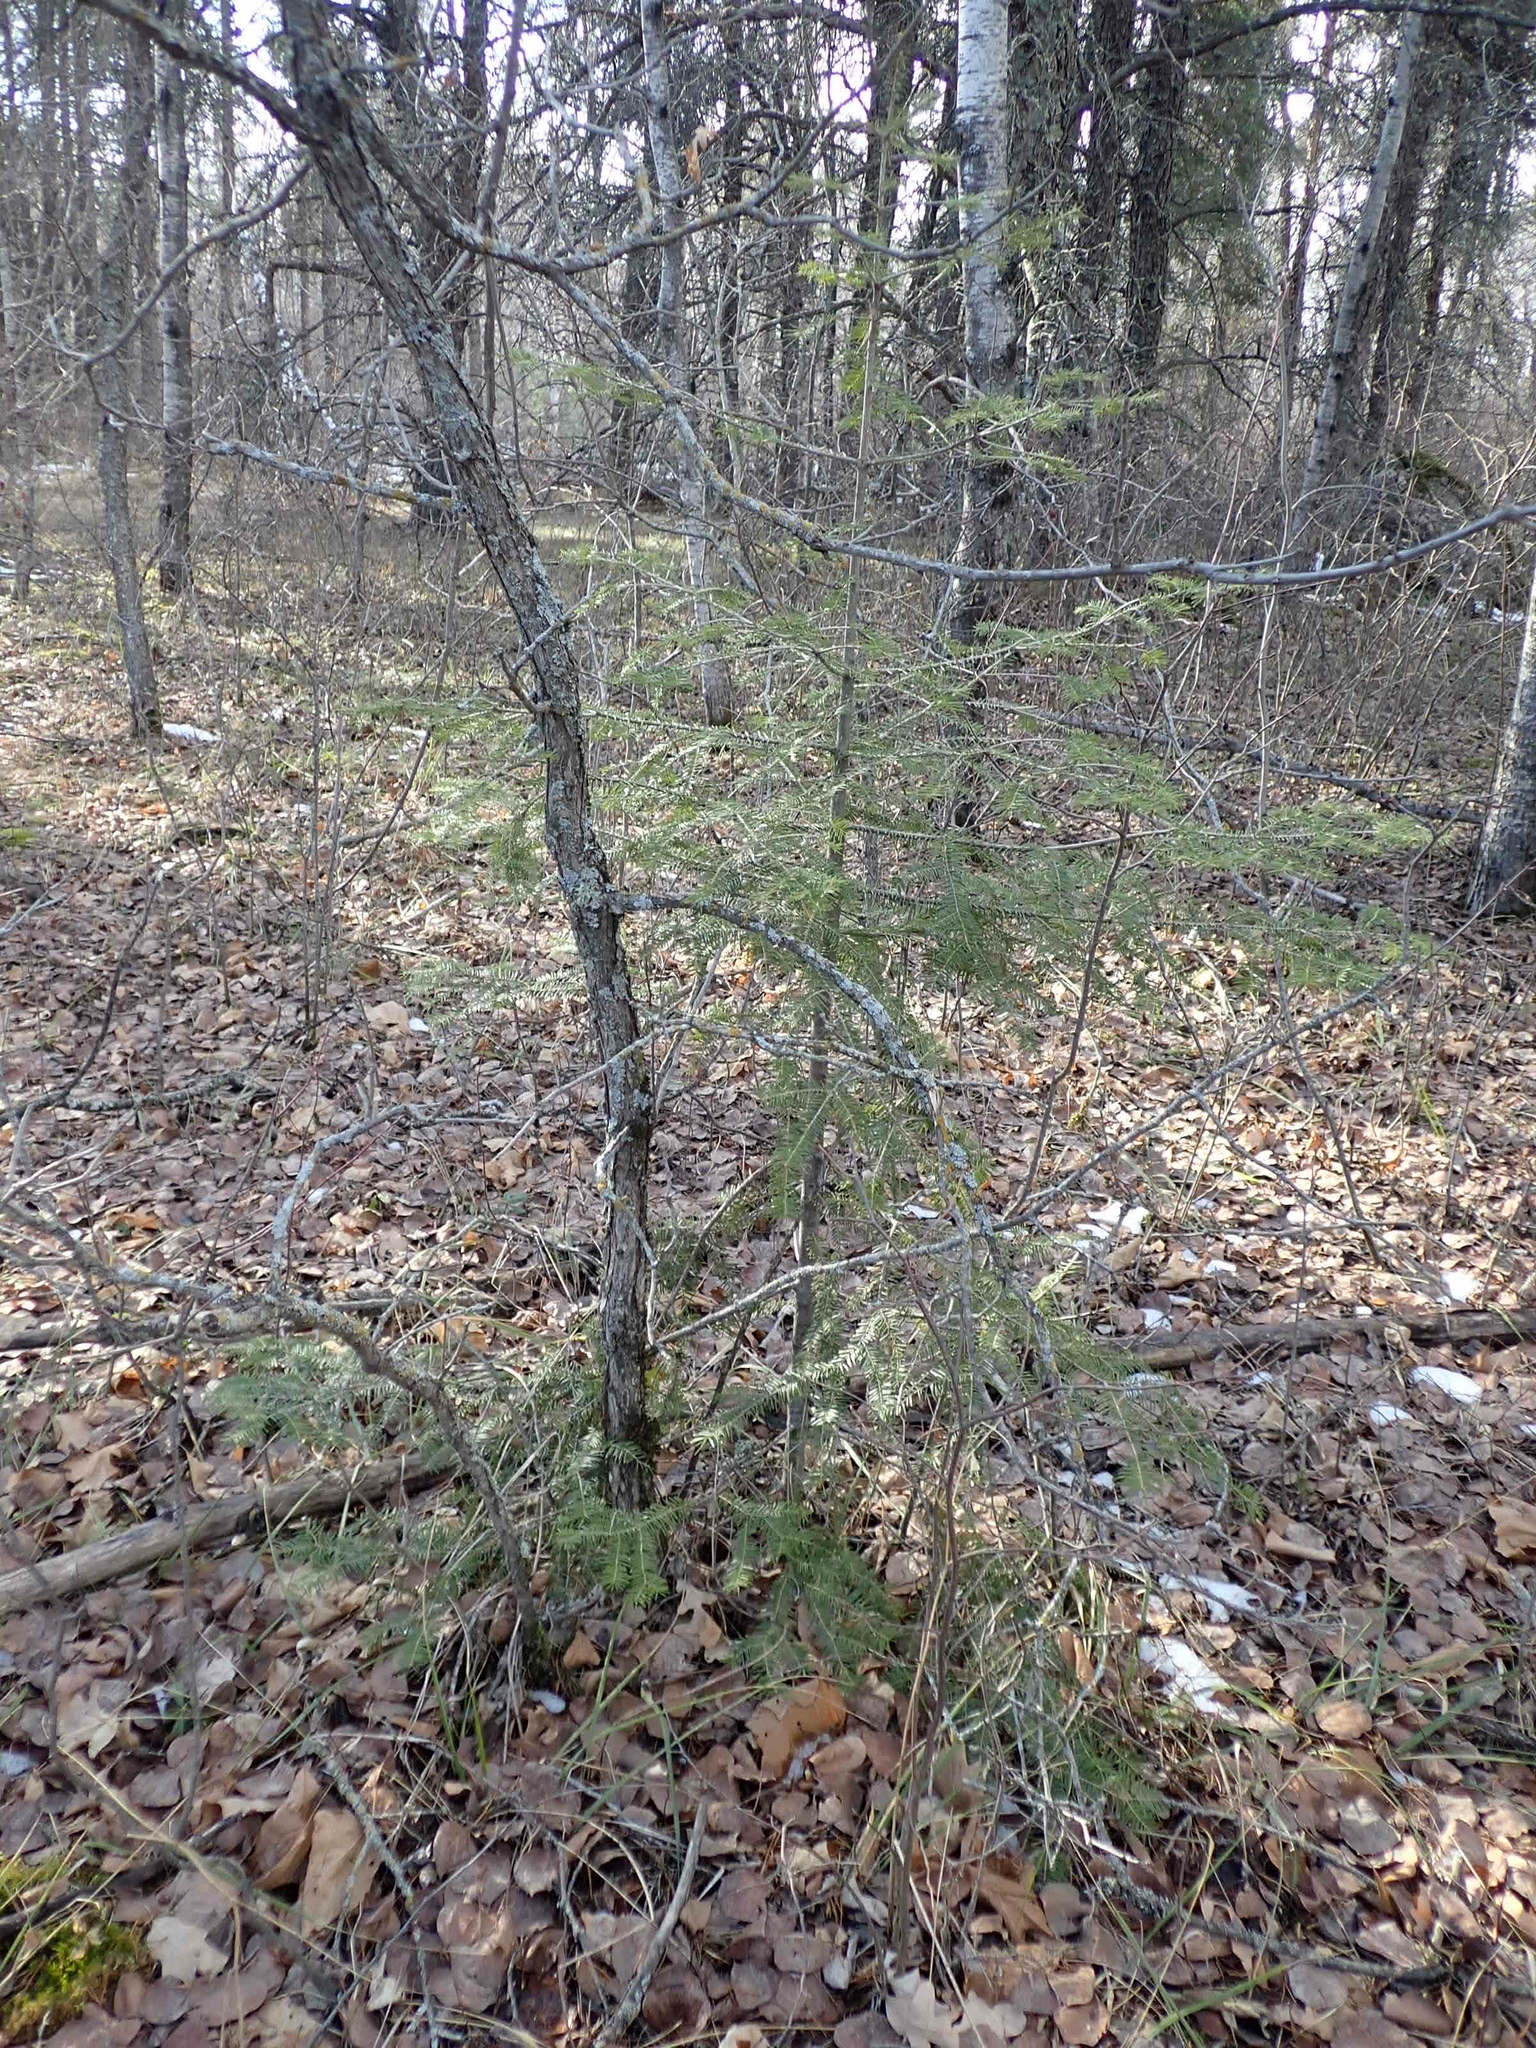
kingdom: Plantae
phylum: Tracheophyta
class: Pinopsida
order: Pinales
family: Pinaceae
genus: Abies
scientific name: Abies balsamea
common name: Balsam fir
